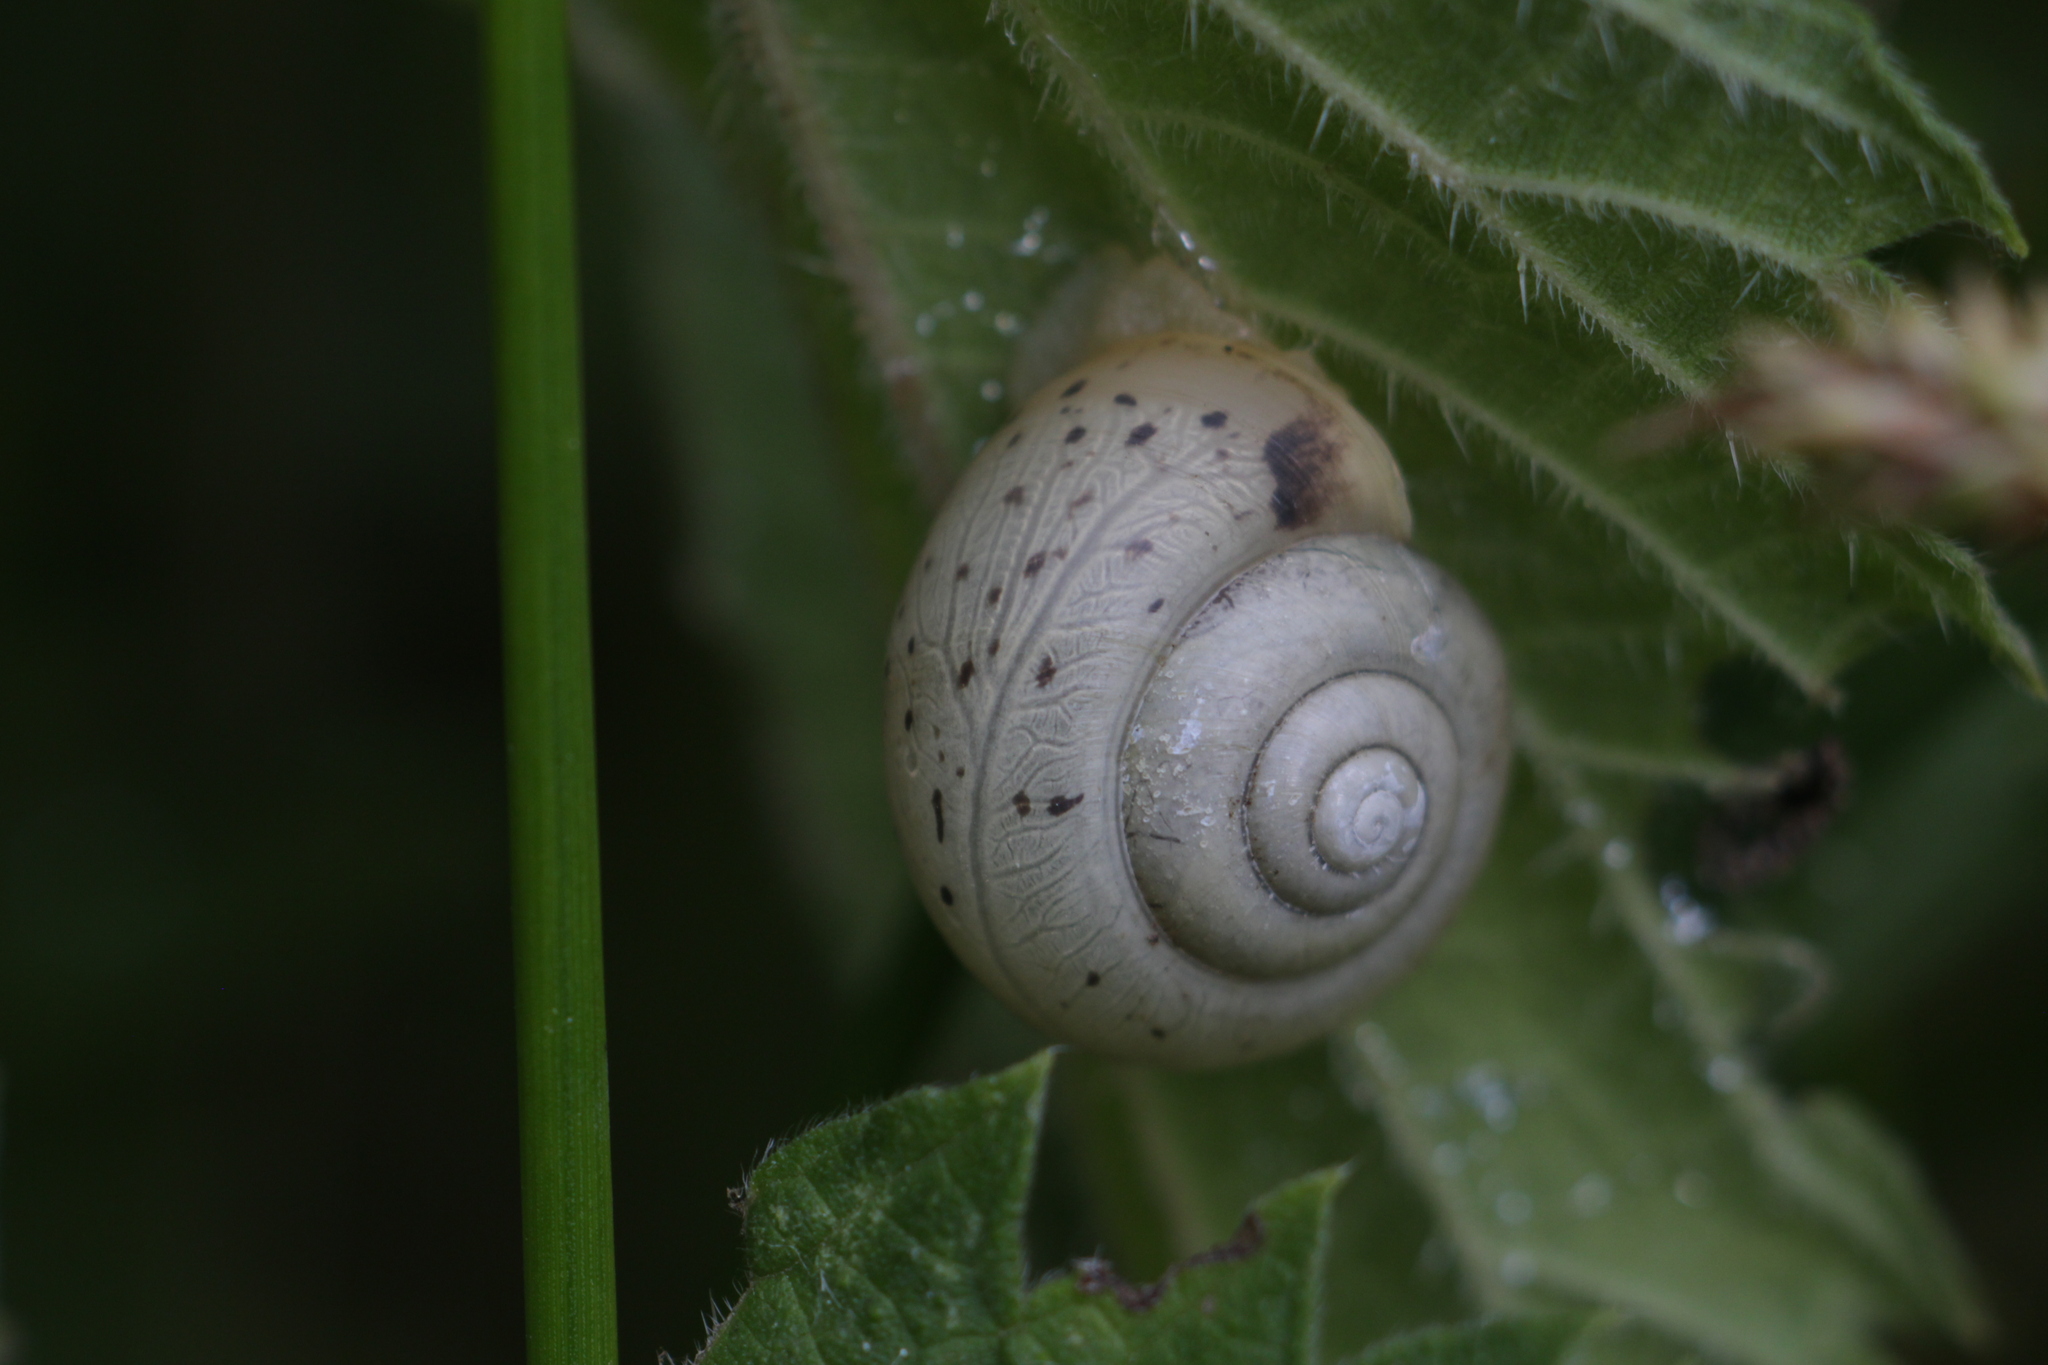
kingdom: Animalia
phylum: Mollusca
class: Gastropoda
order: Stylommatophora
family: Camaenidae
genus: Fruticicola
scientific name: Fruticicola fruticum
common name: Bush snail
